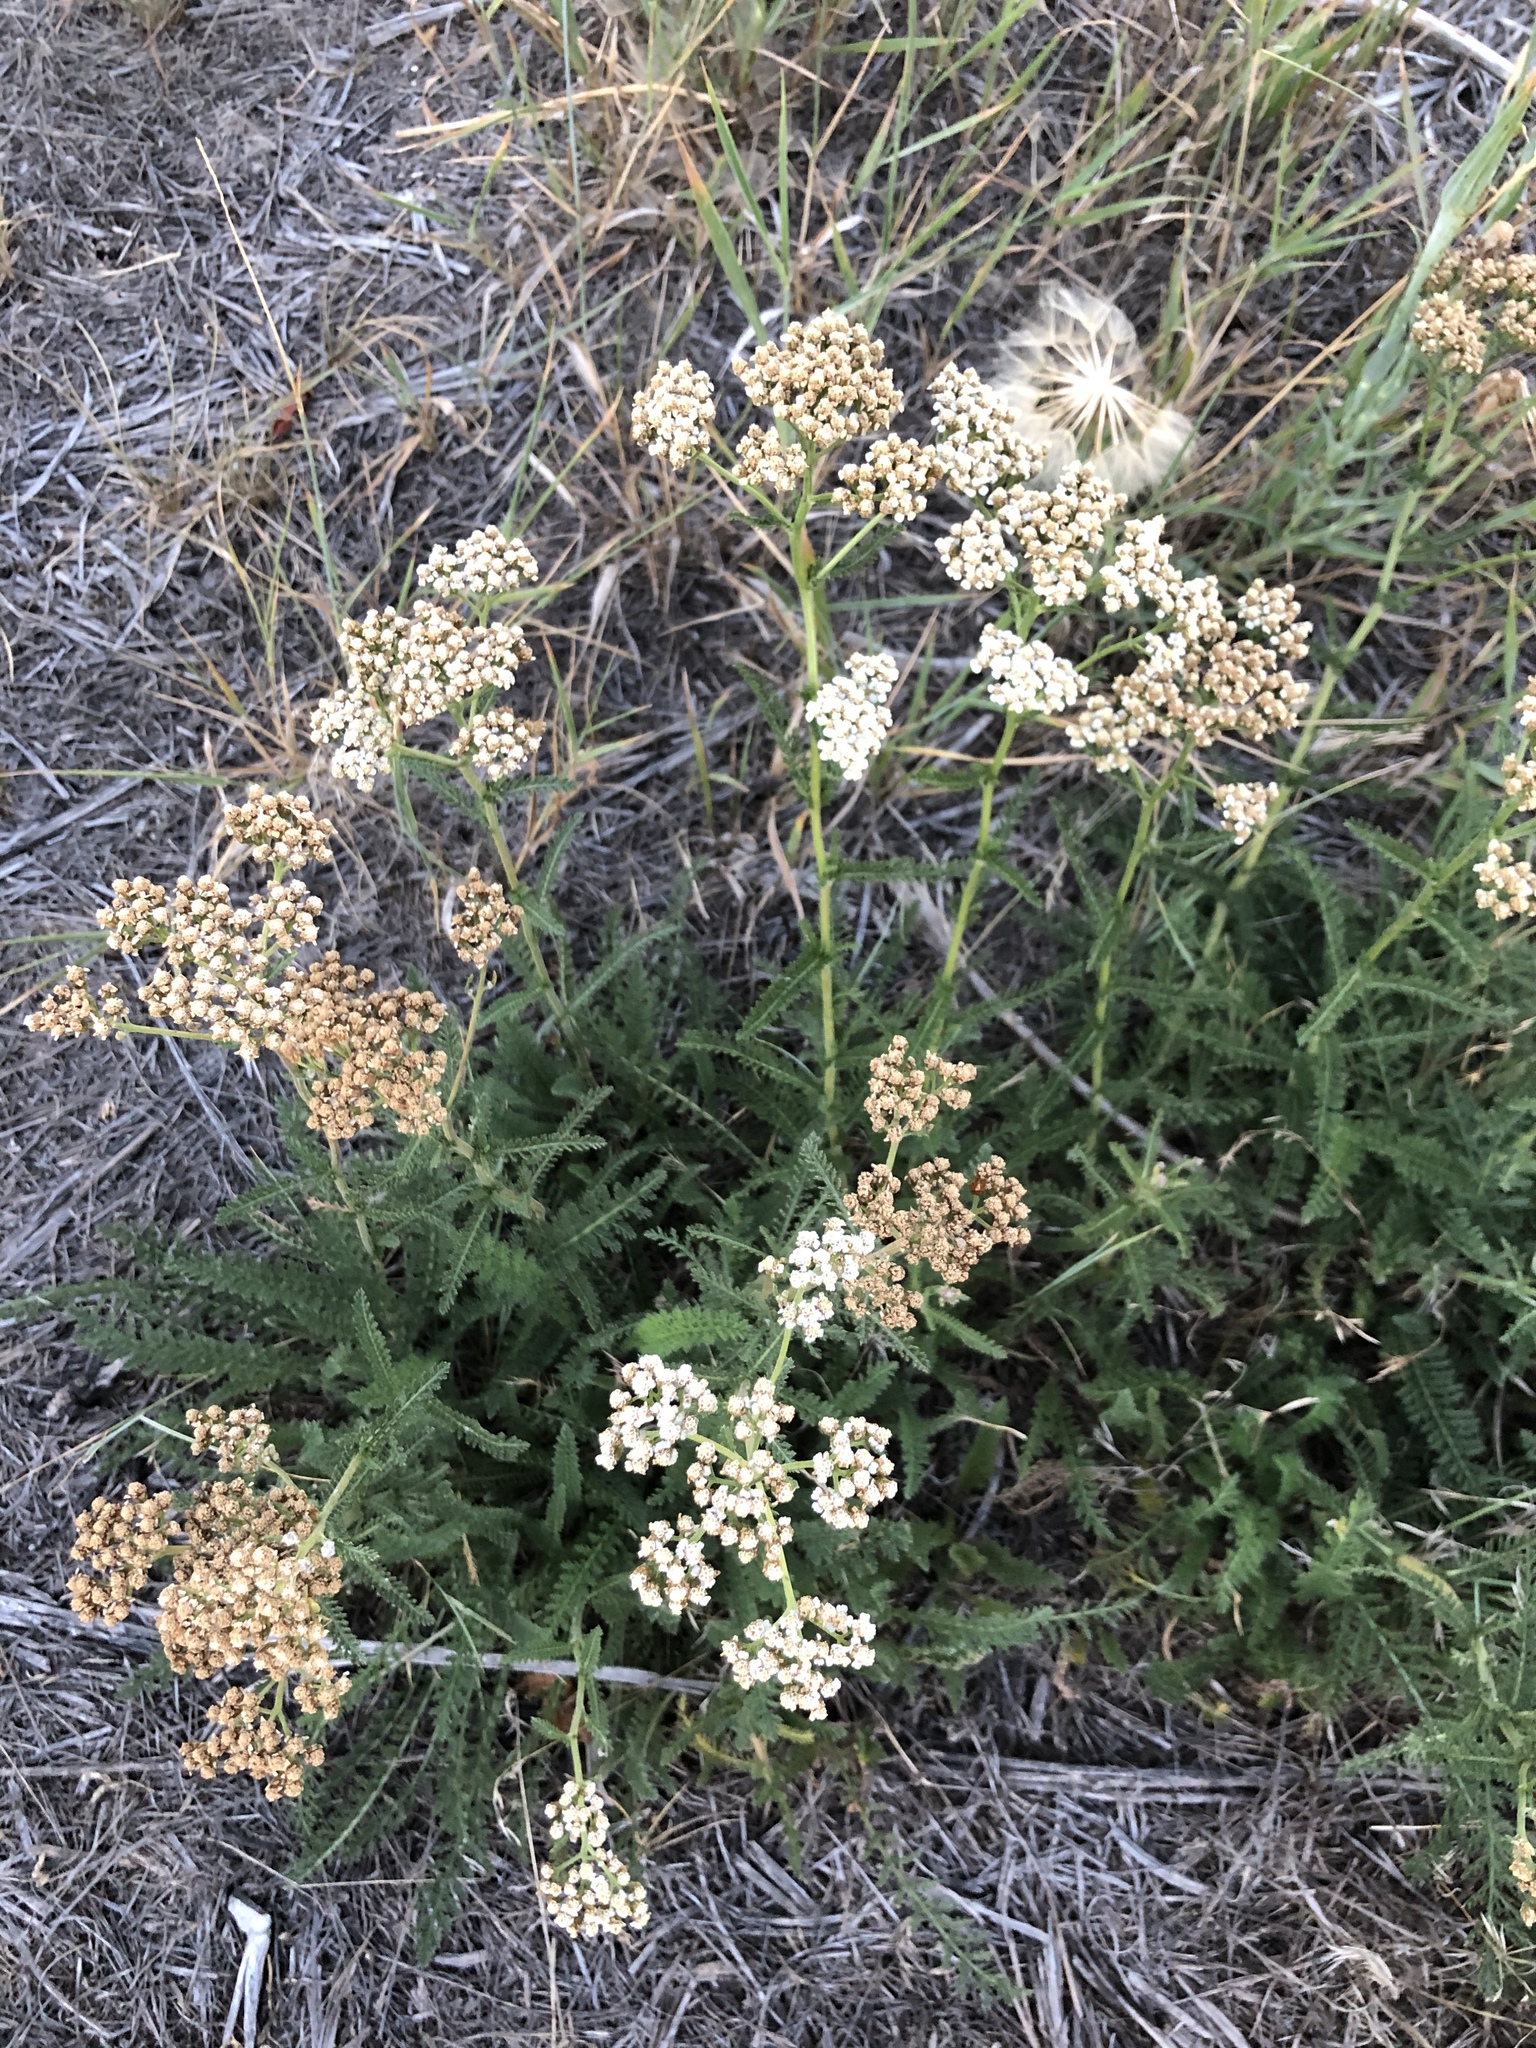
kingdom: Plantae
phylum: Tracheophyta
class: Magnoliopsida
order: Asterales
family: Asteraceae
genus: Achillea
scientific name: Achillea millefolium
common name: Yarrow
